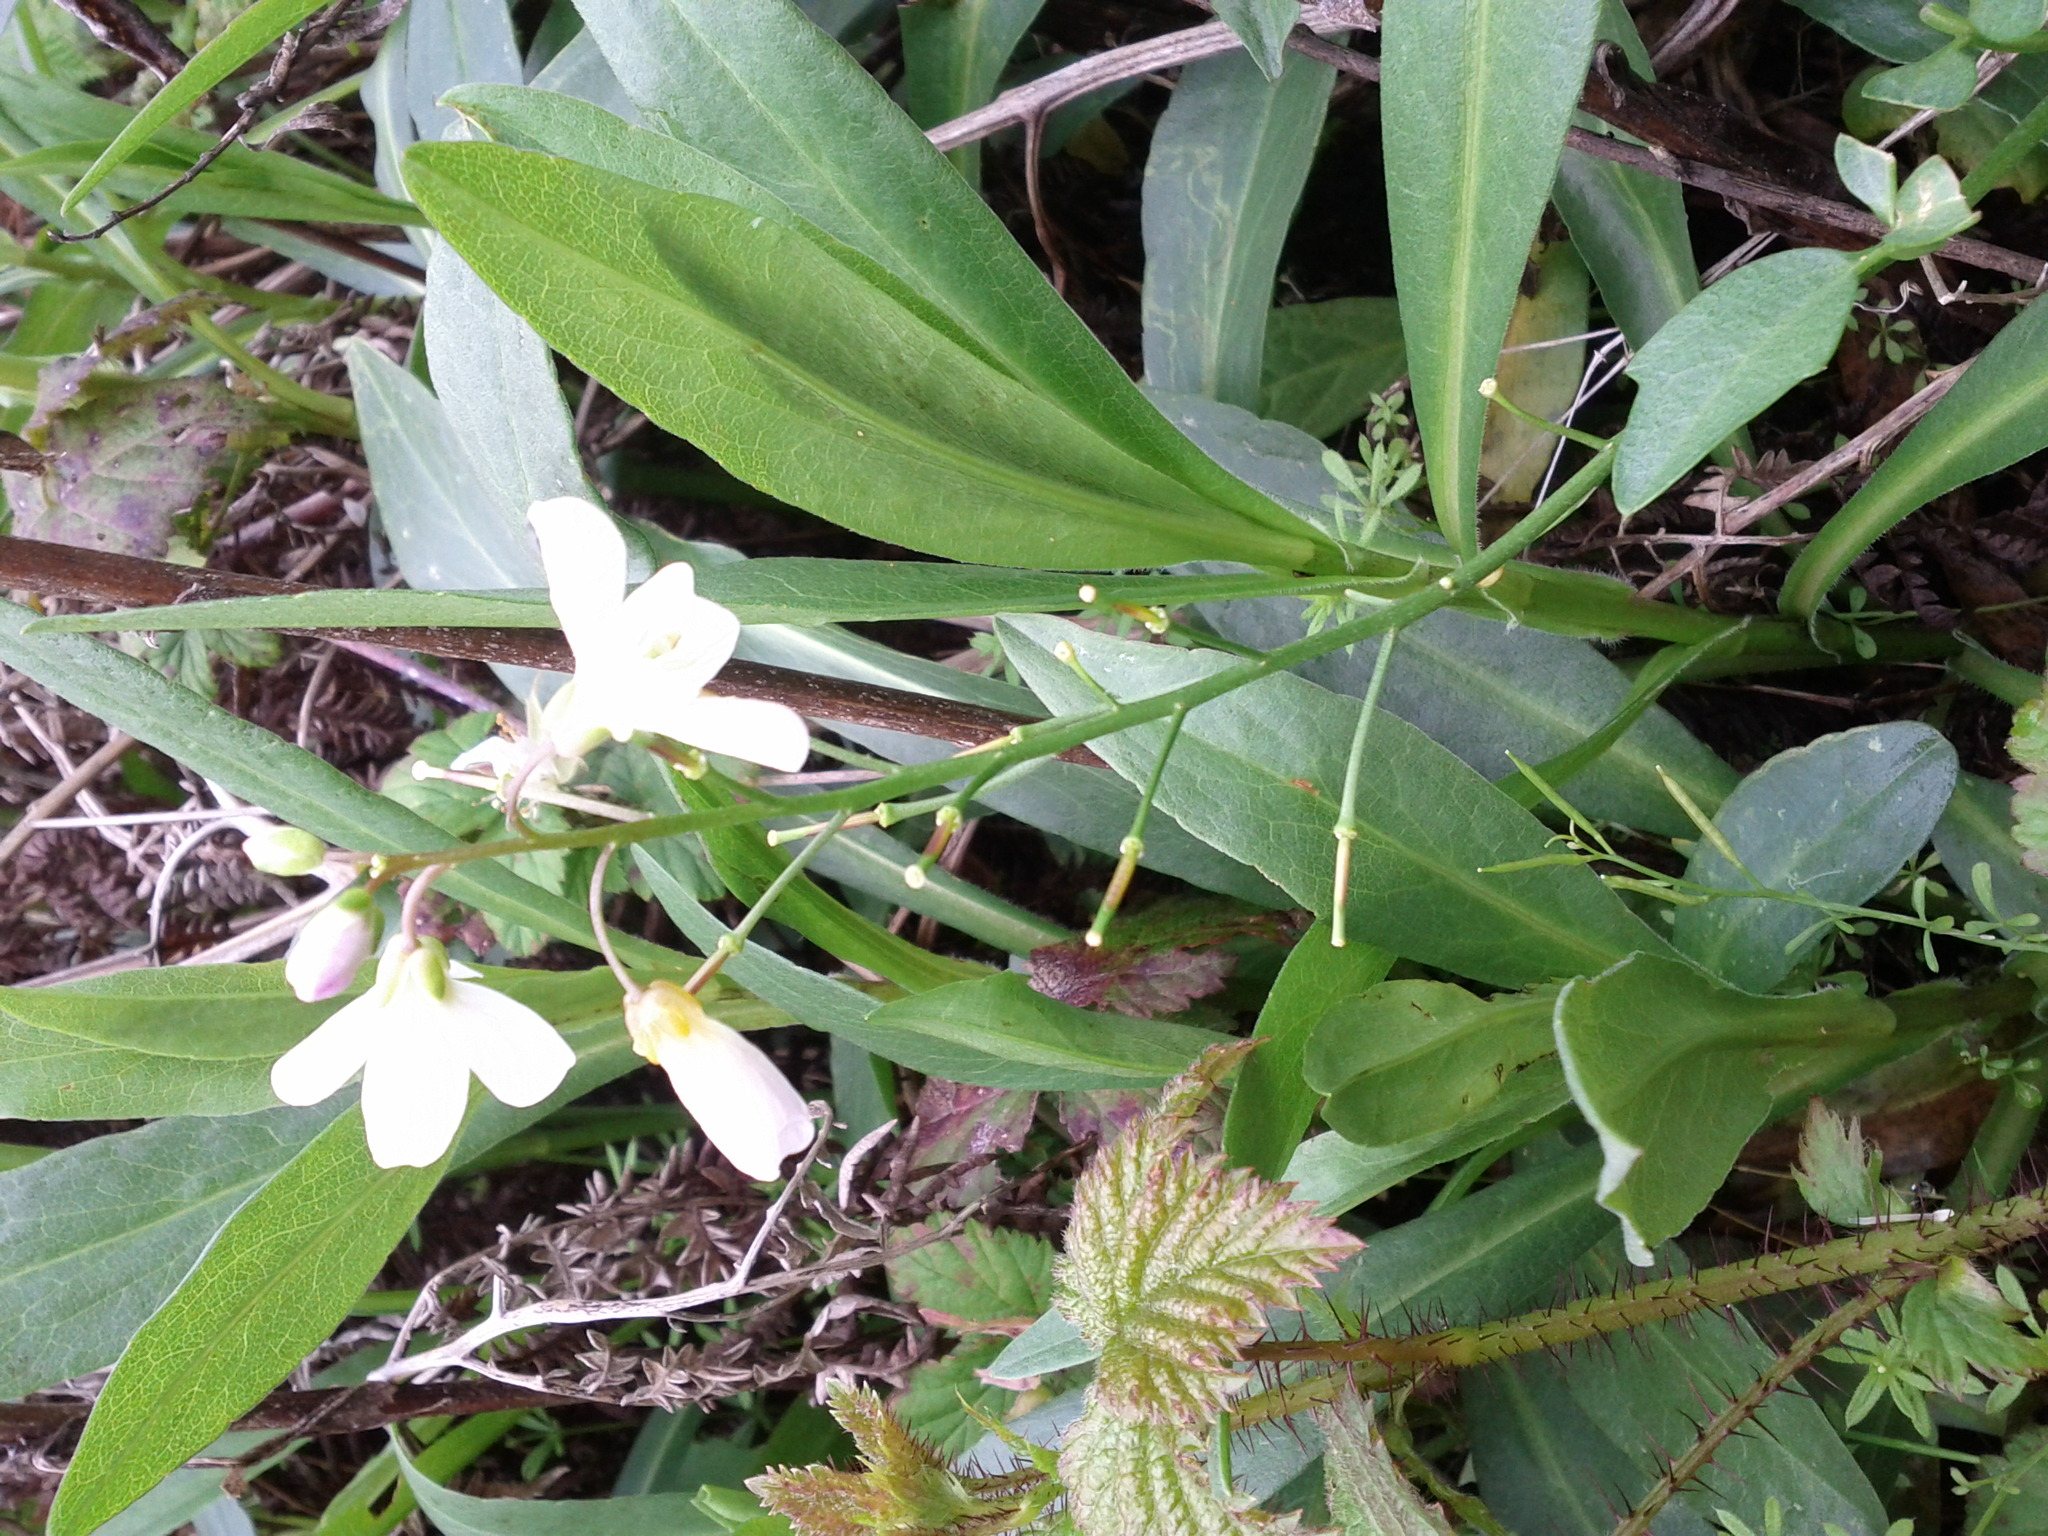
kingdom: Plantae
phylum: Tracheophyta
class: Magnoliopsida
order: Brassicales
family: Brassicaceae
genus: Cardamine
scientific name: Cardamine californica
